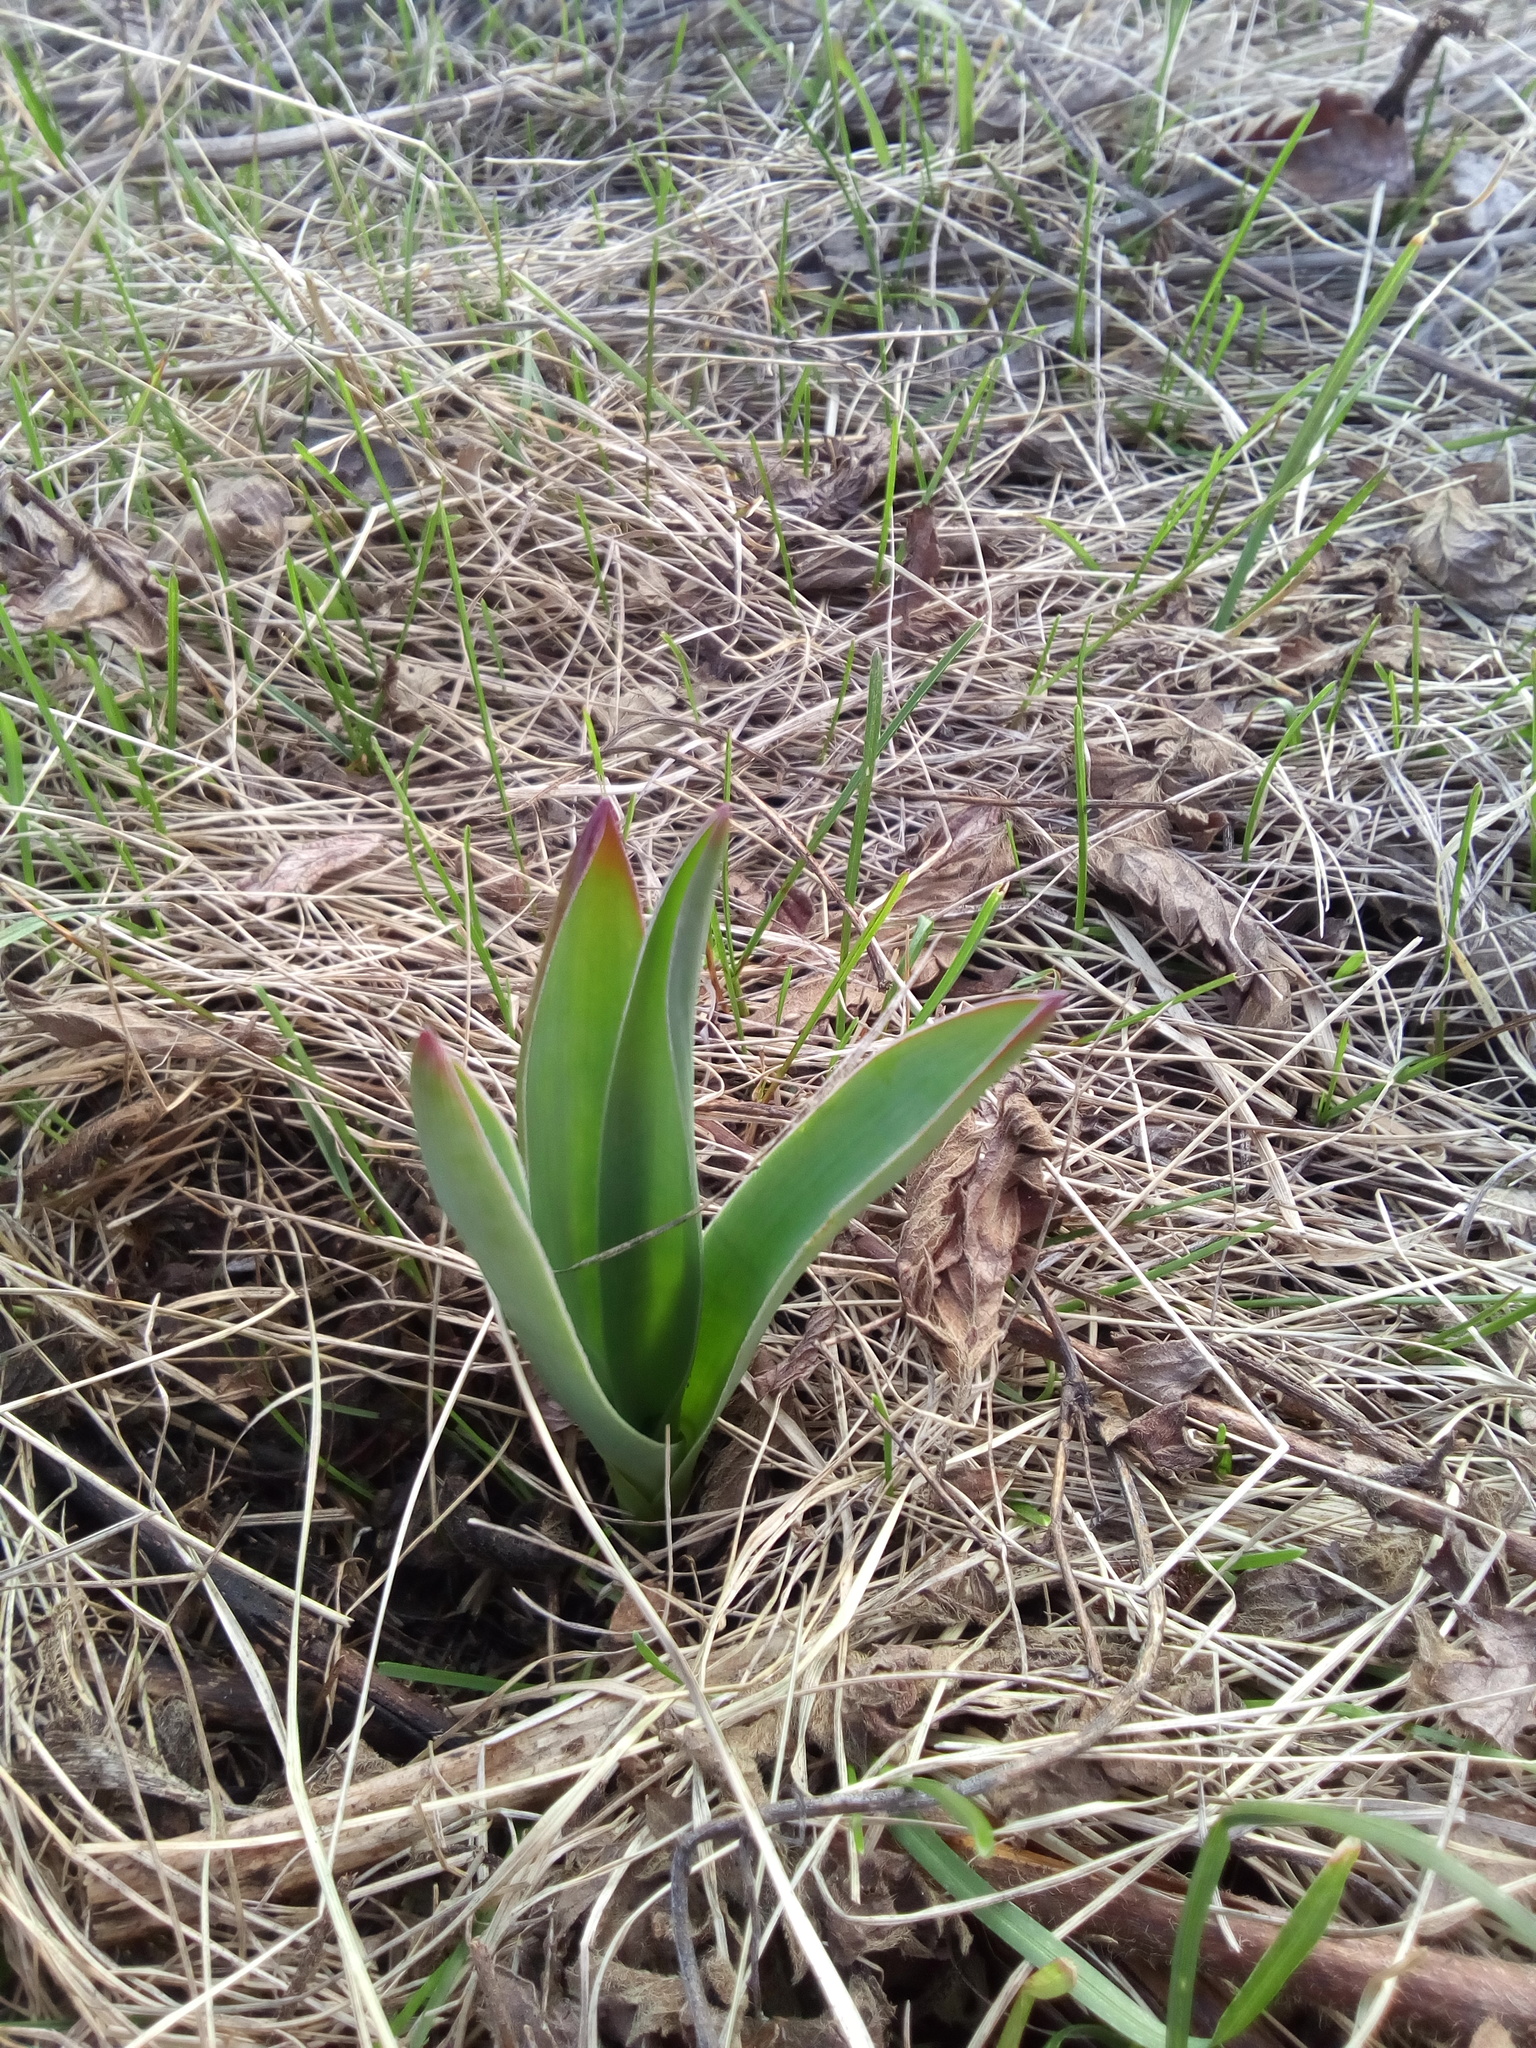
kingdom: Plantae
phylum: Tracheophyta
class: Liliopsida
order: Asparagales
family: Asparagaceae
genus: Bellevalia
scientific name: Bellevalia speciosa
